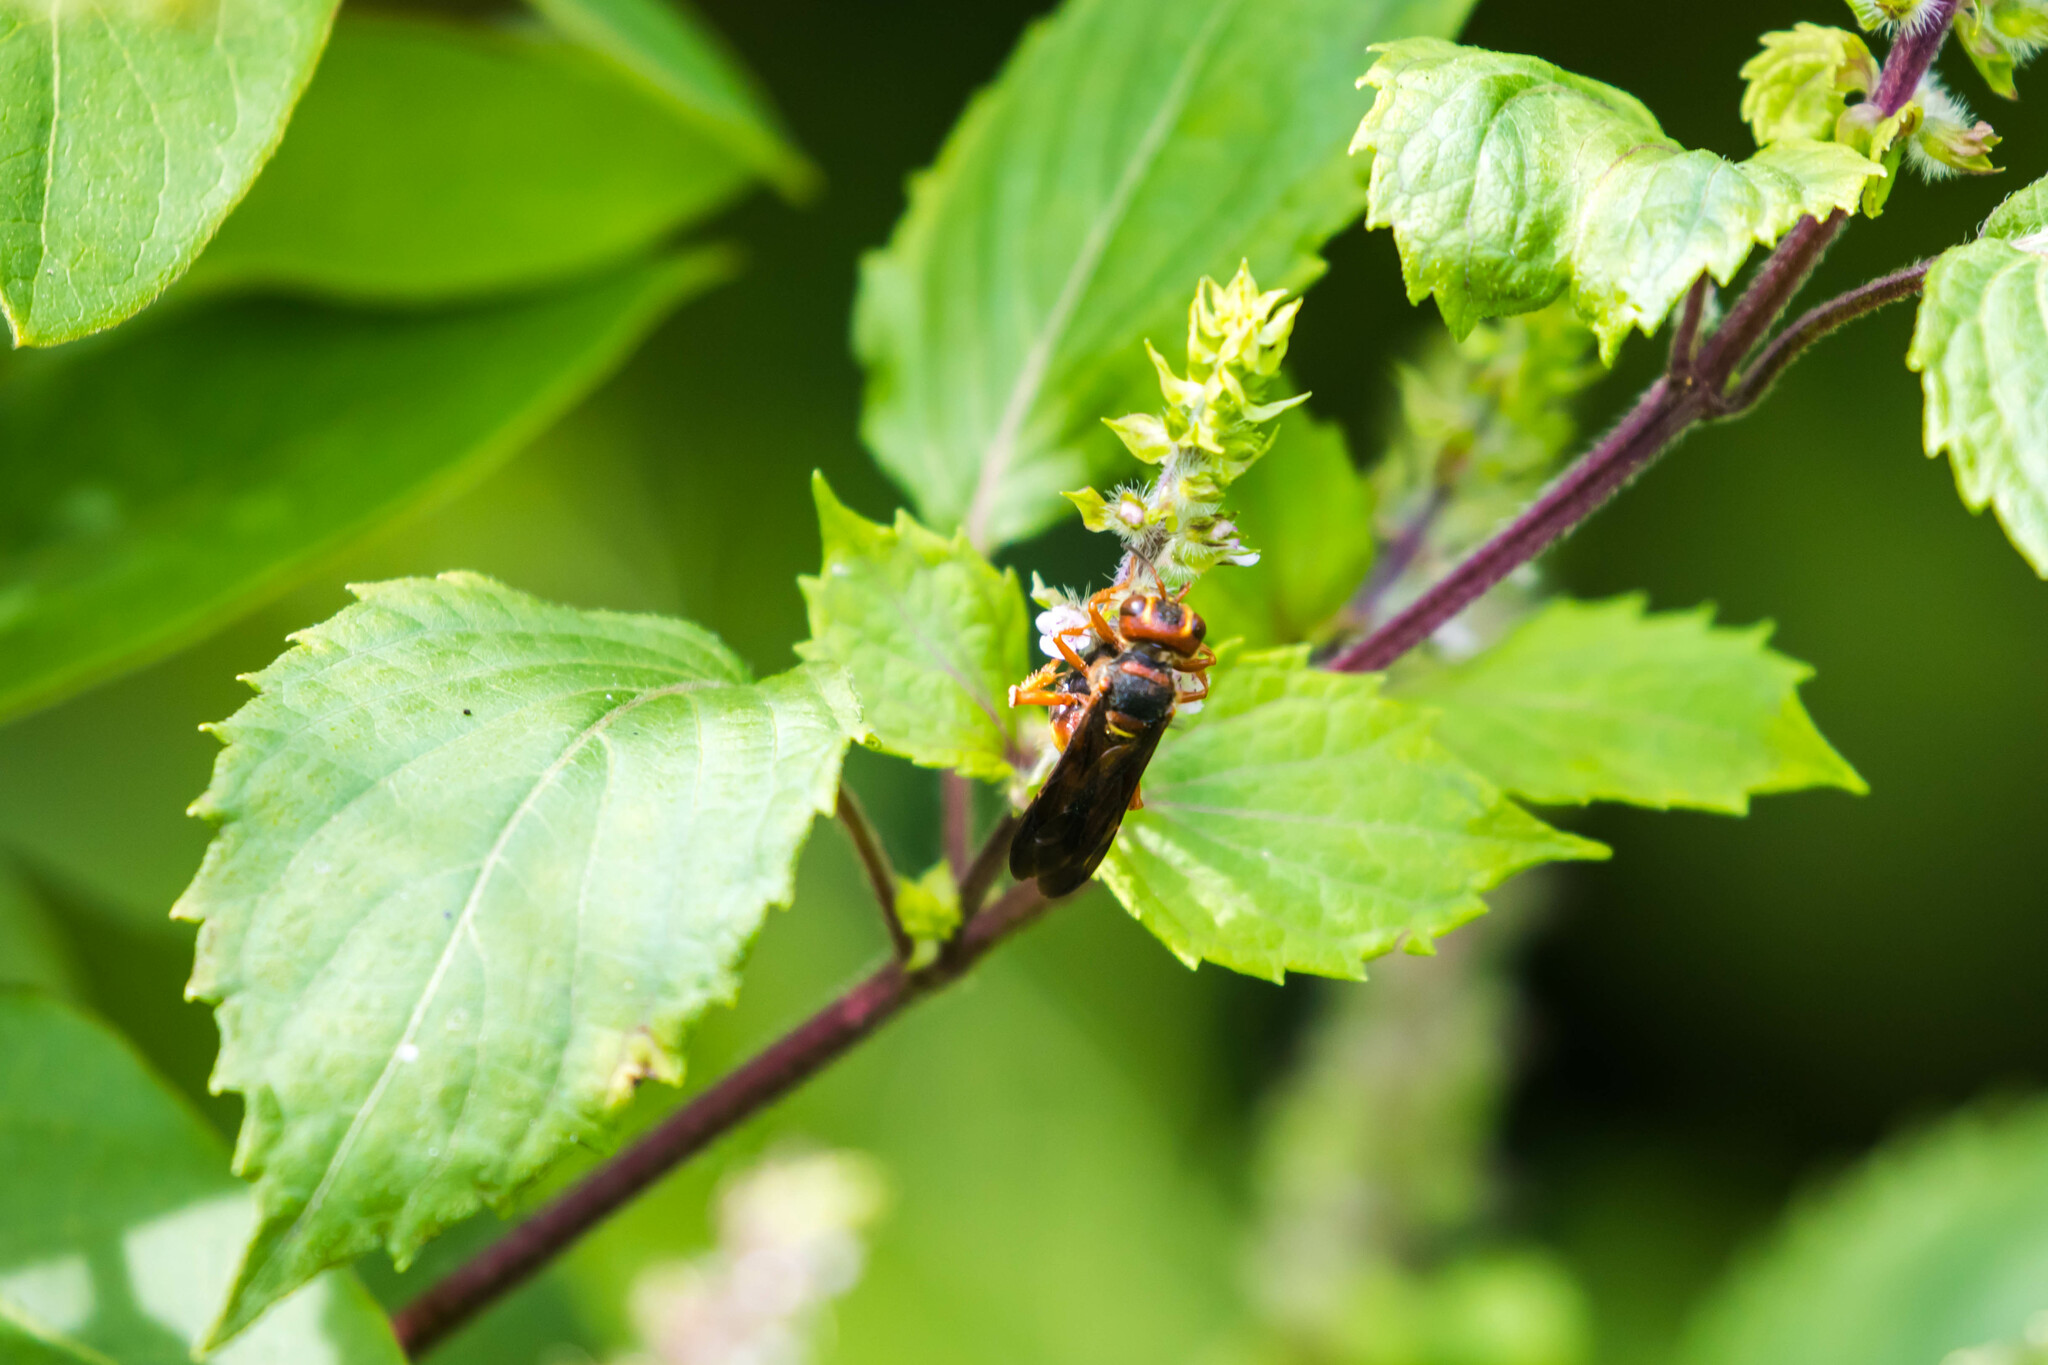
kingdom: Animalia
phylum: Arthropoda
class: Insecta
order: Hymenoptera
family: Crabronidae
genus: Cerceris
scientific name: Cerceris bicornuta
